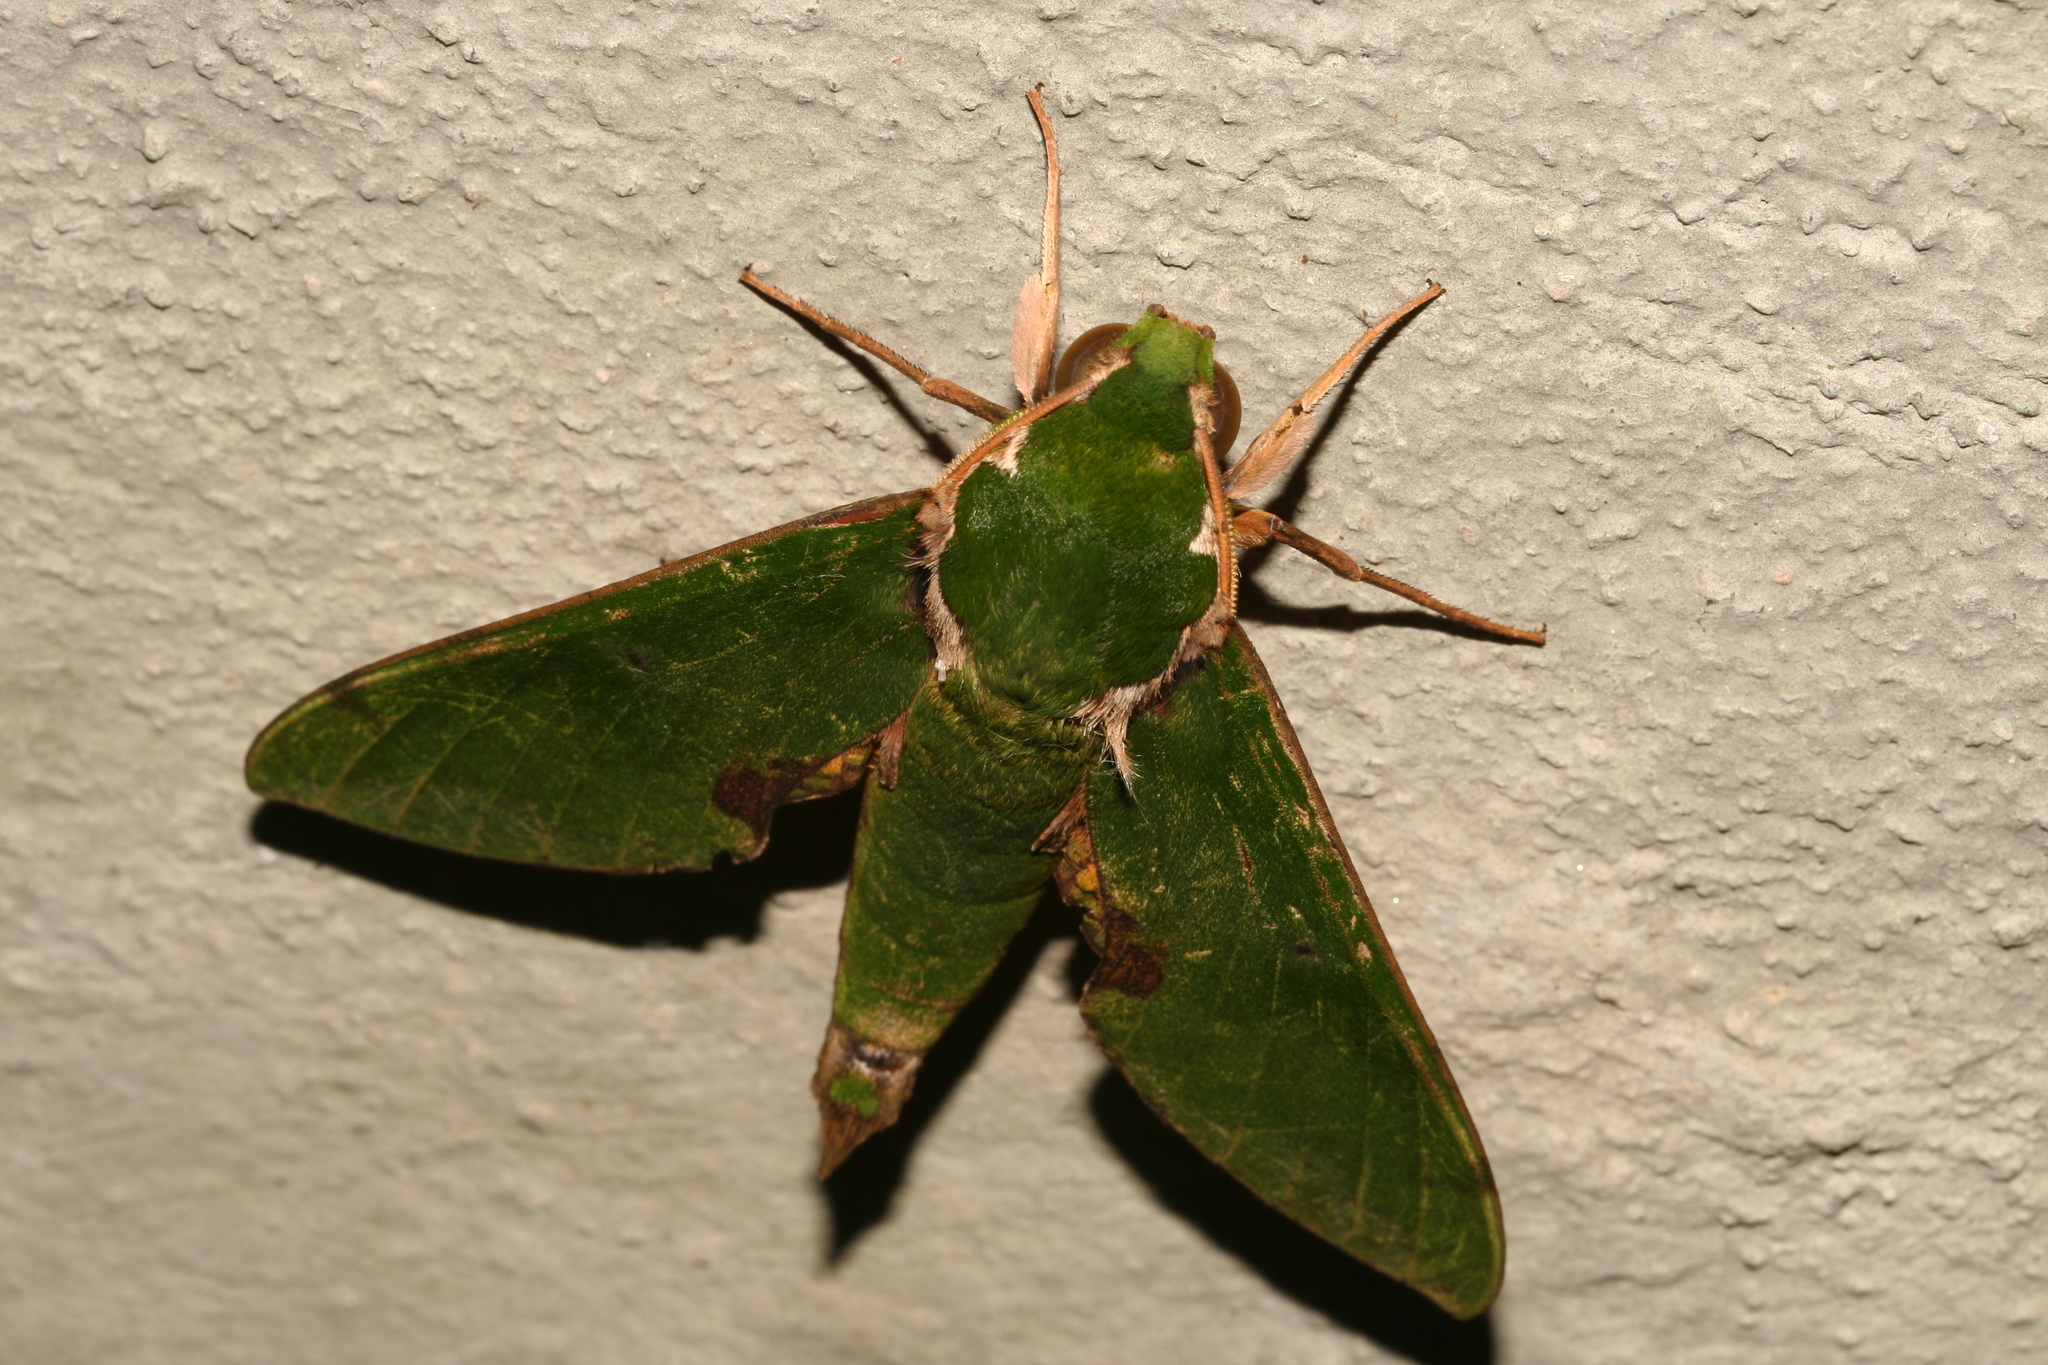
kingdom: Animalia
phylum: Arthropoda
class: Insecta
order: Lepidoptera
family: Sphingidae
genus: Euchloron
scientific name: Euchloron megaera
